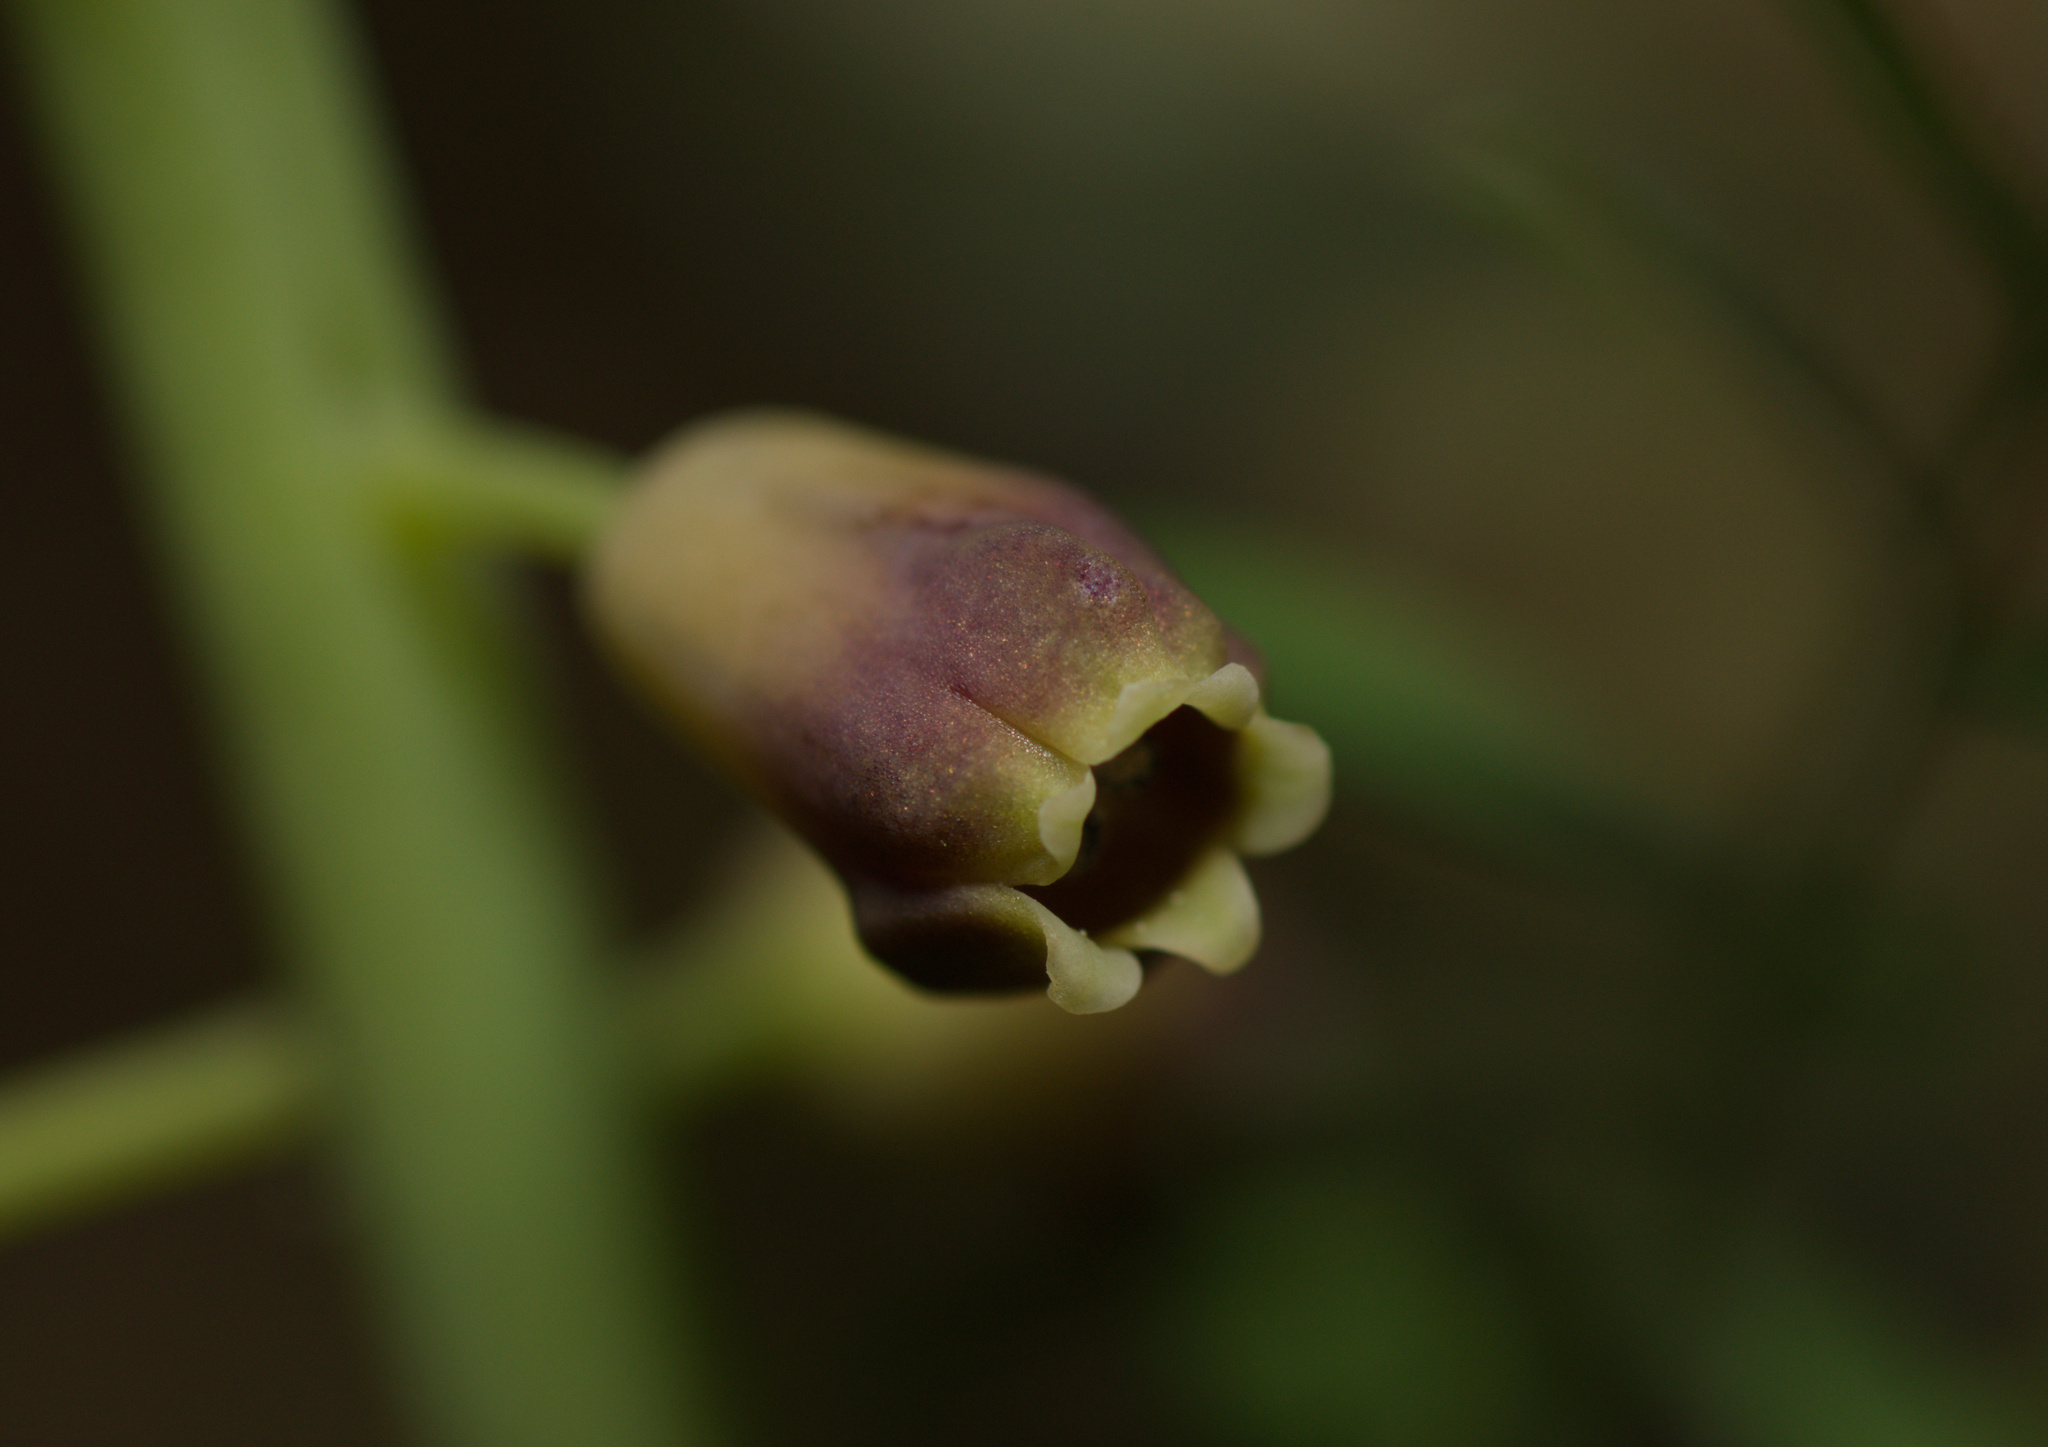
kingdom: Plantae
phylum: Tracheophyta
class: Liliopsida
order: Asparagales
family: Asparagaceae
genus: Muscari
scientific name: Muscari comosum
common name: Tassel hyacinth
